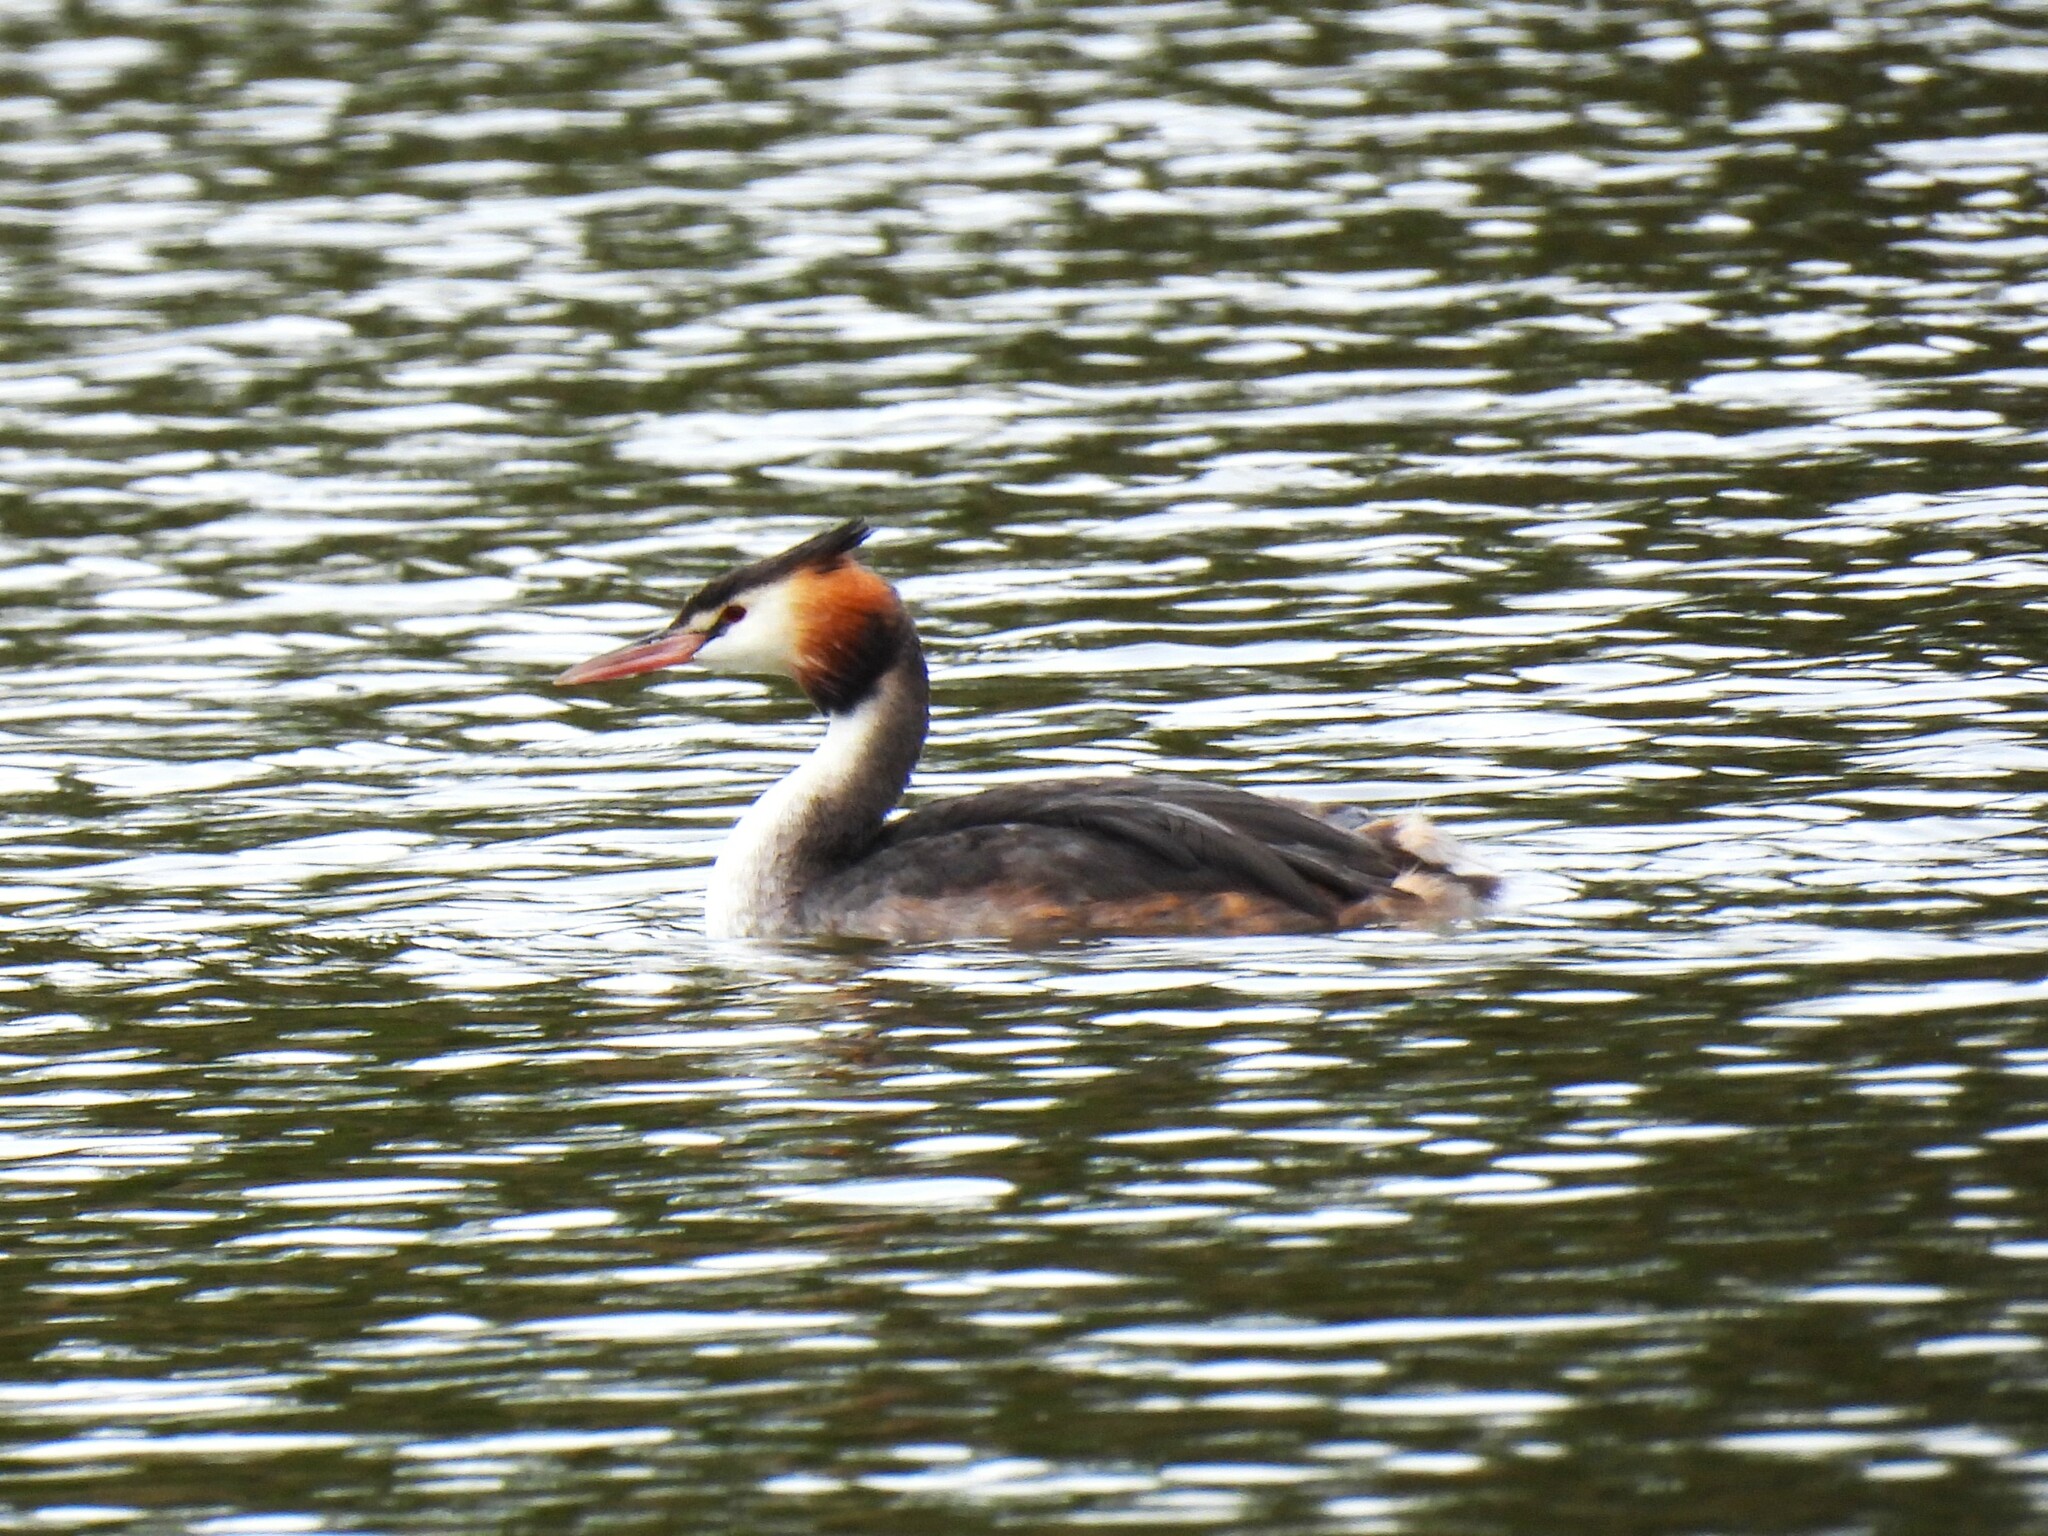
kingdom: Animalia
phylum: Chordata
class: Aves
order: Podicipediformes
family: Podicipedidae
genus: Podiceps
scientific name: Podiceps cristatus
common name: Great crested grebe
